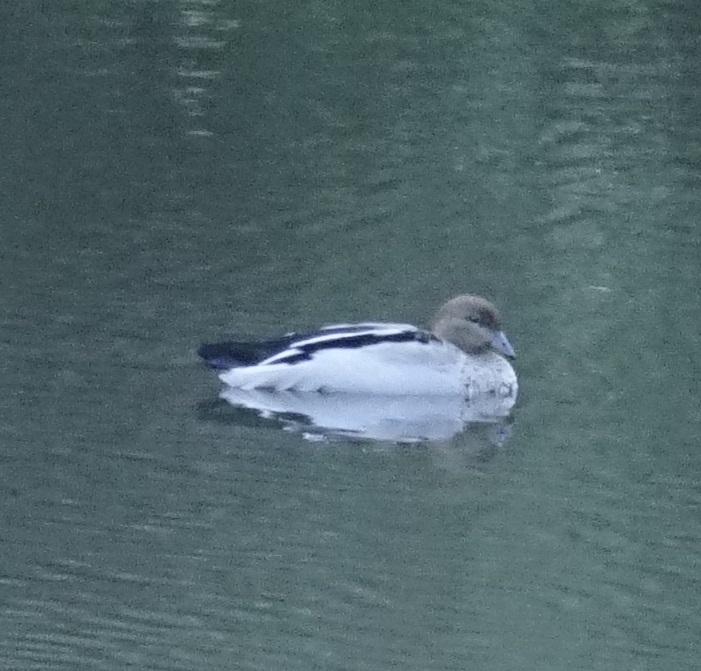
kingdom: Animalia
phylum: Chordata
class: Aves
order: Anseriformes
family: Anatidae
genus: Chenonetta
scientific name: Chenonetta jubata
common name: Maned duck
